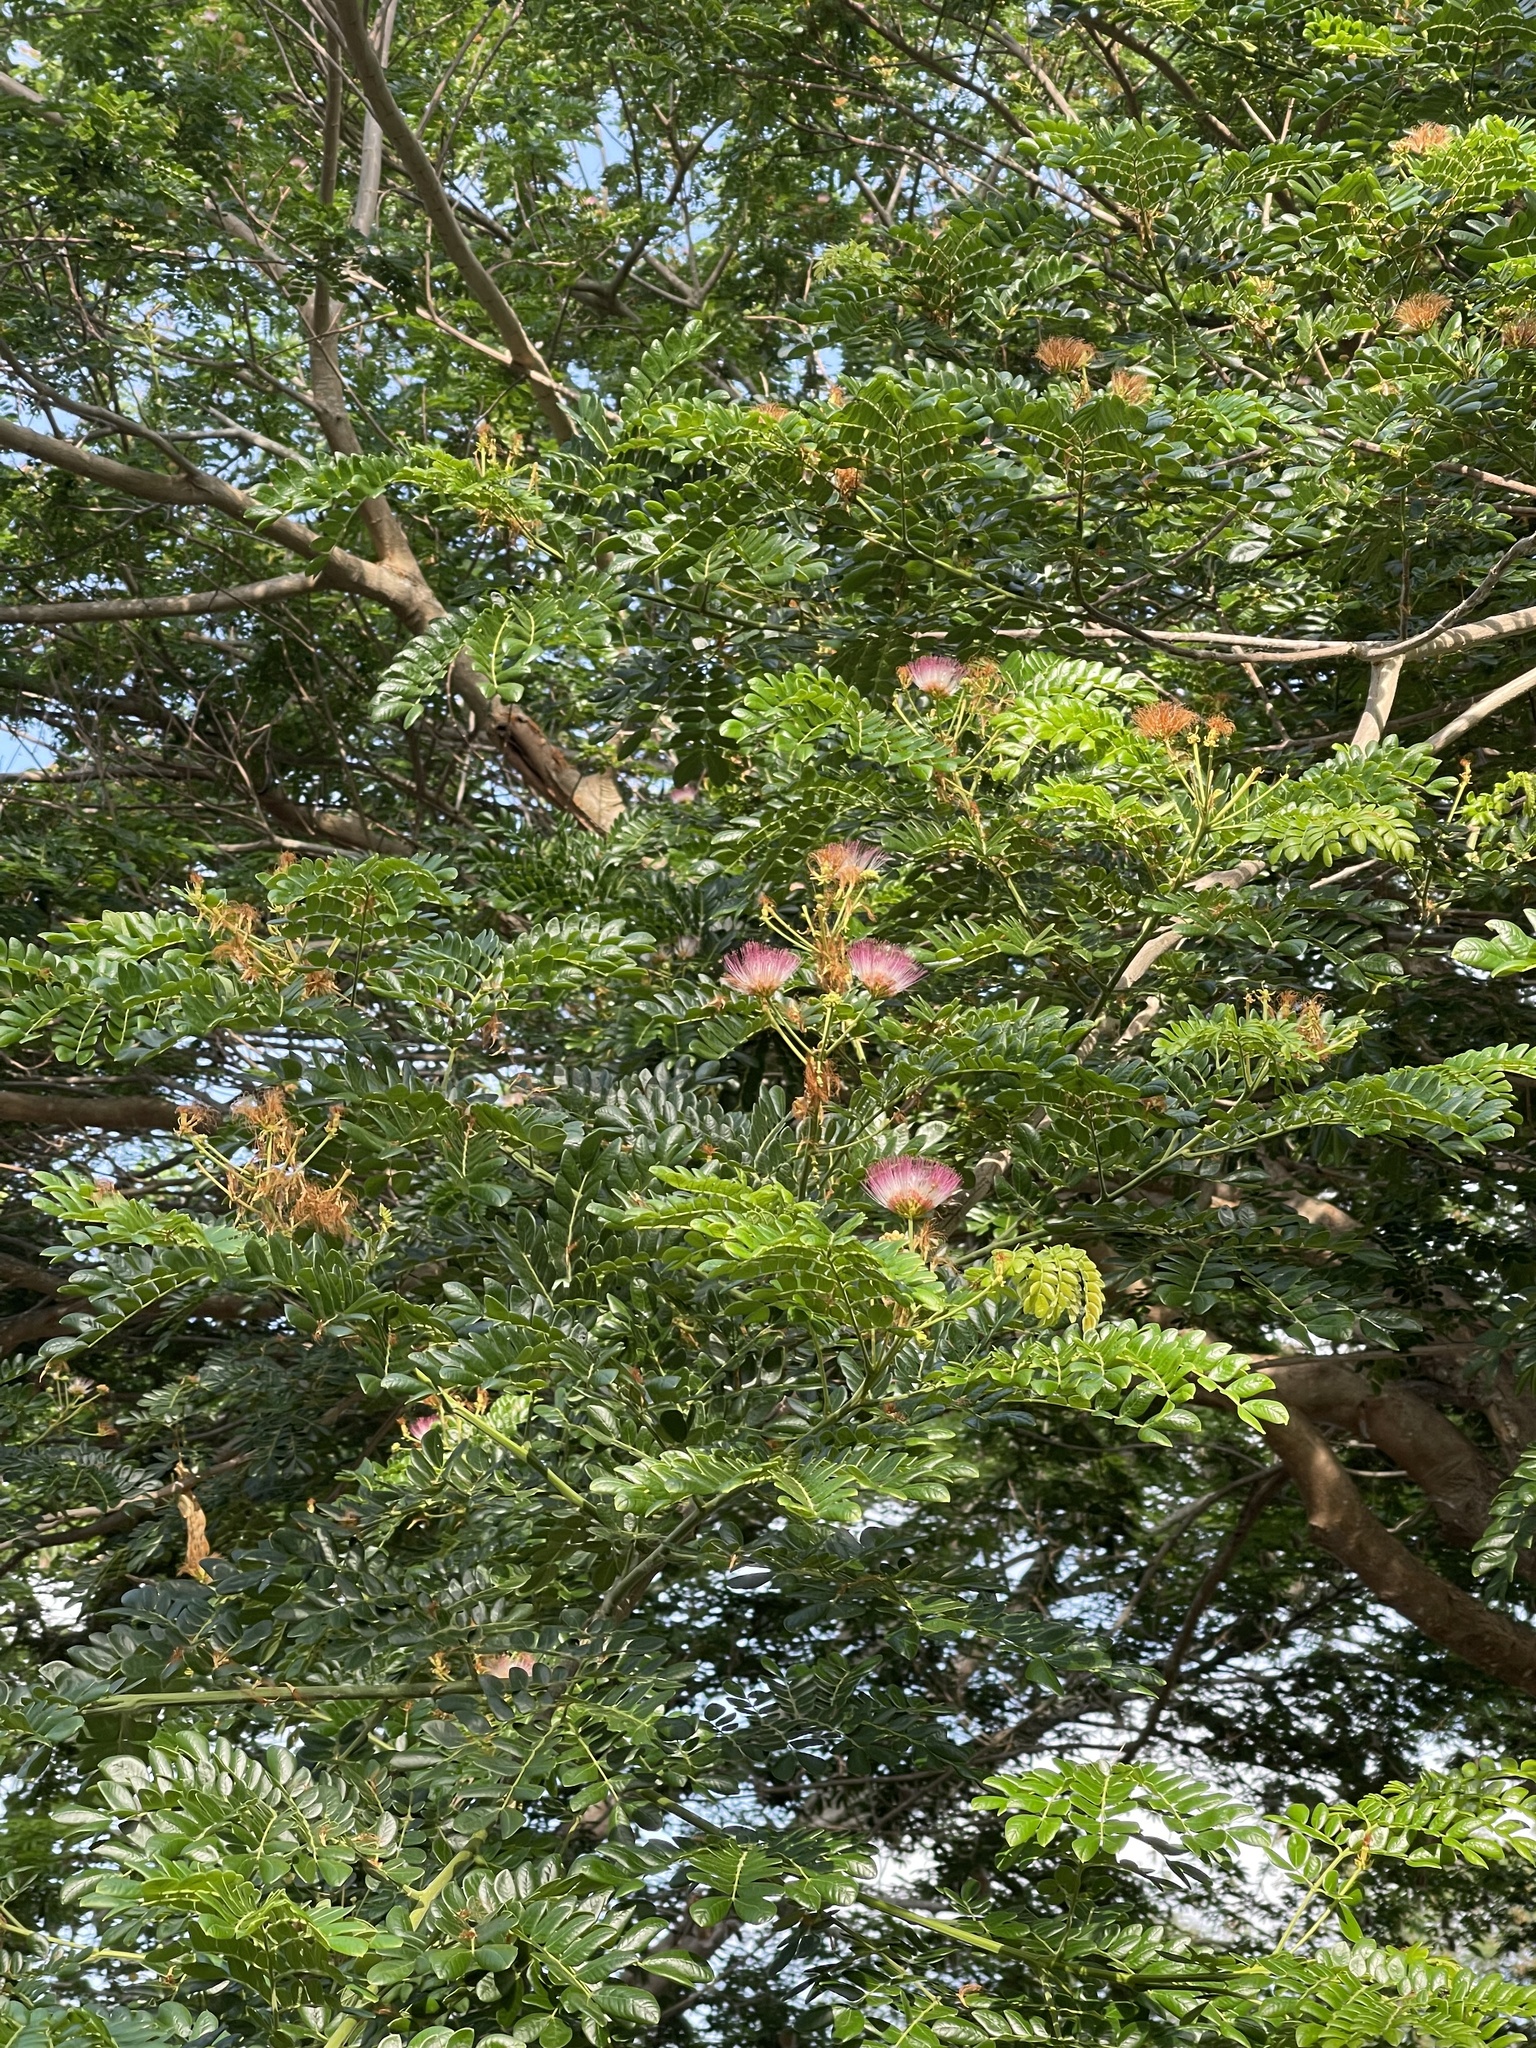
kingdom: Plantae
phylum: Tracheophyta
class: Magnoliopsida
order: Fabales
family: Fabaceae
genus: Samanea
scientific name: Samanea saman
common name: Raintree
